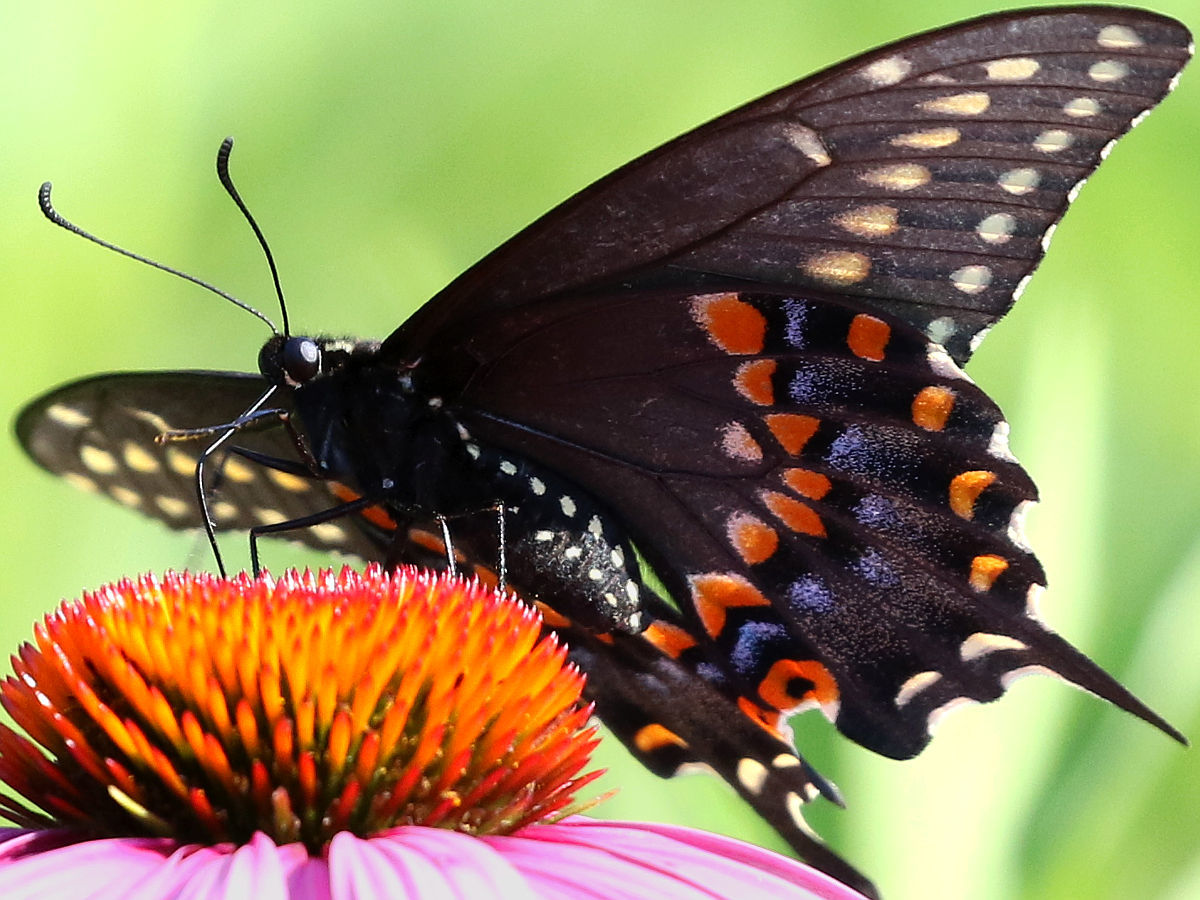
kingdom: Animalia
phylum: Arthropoda
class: Insecta
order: Lepidoptera
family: Papilionidae
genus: Papilio
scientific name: Papilio polyxenes
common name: Black swallowtail
